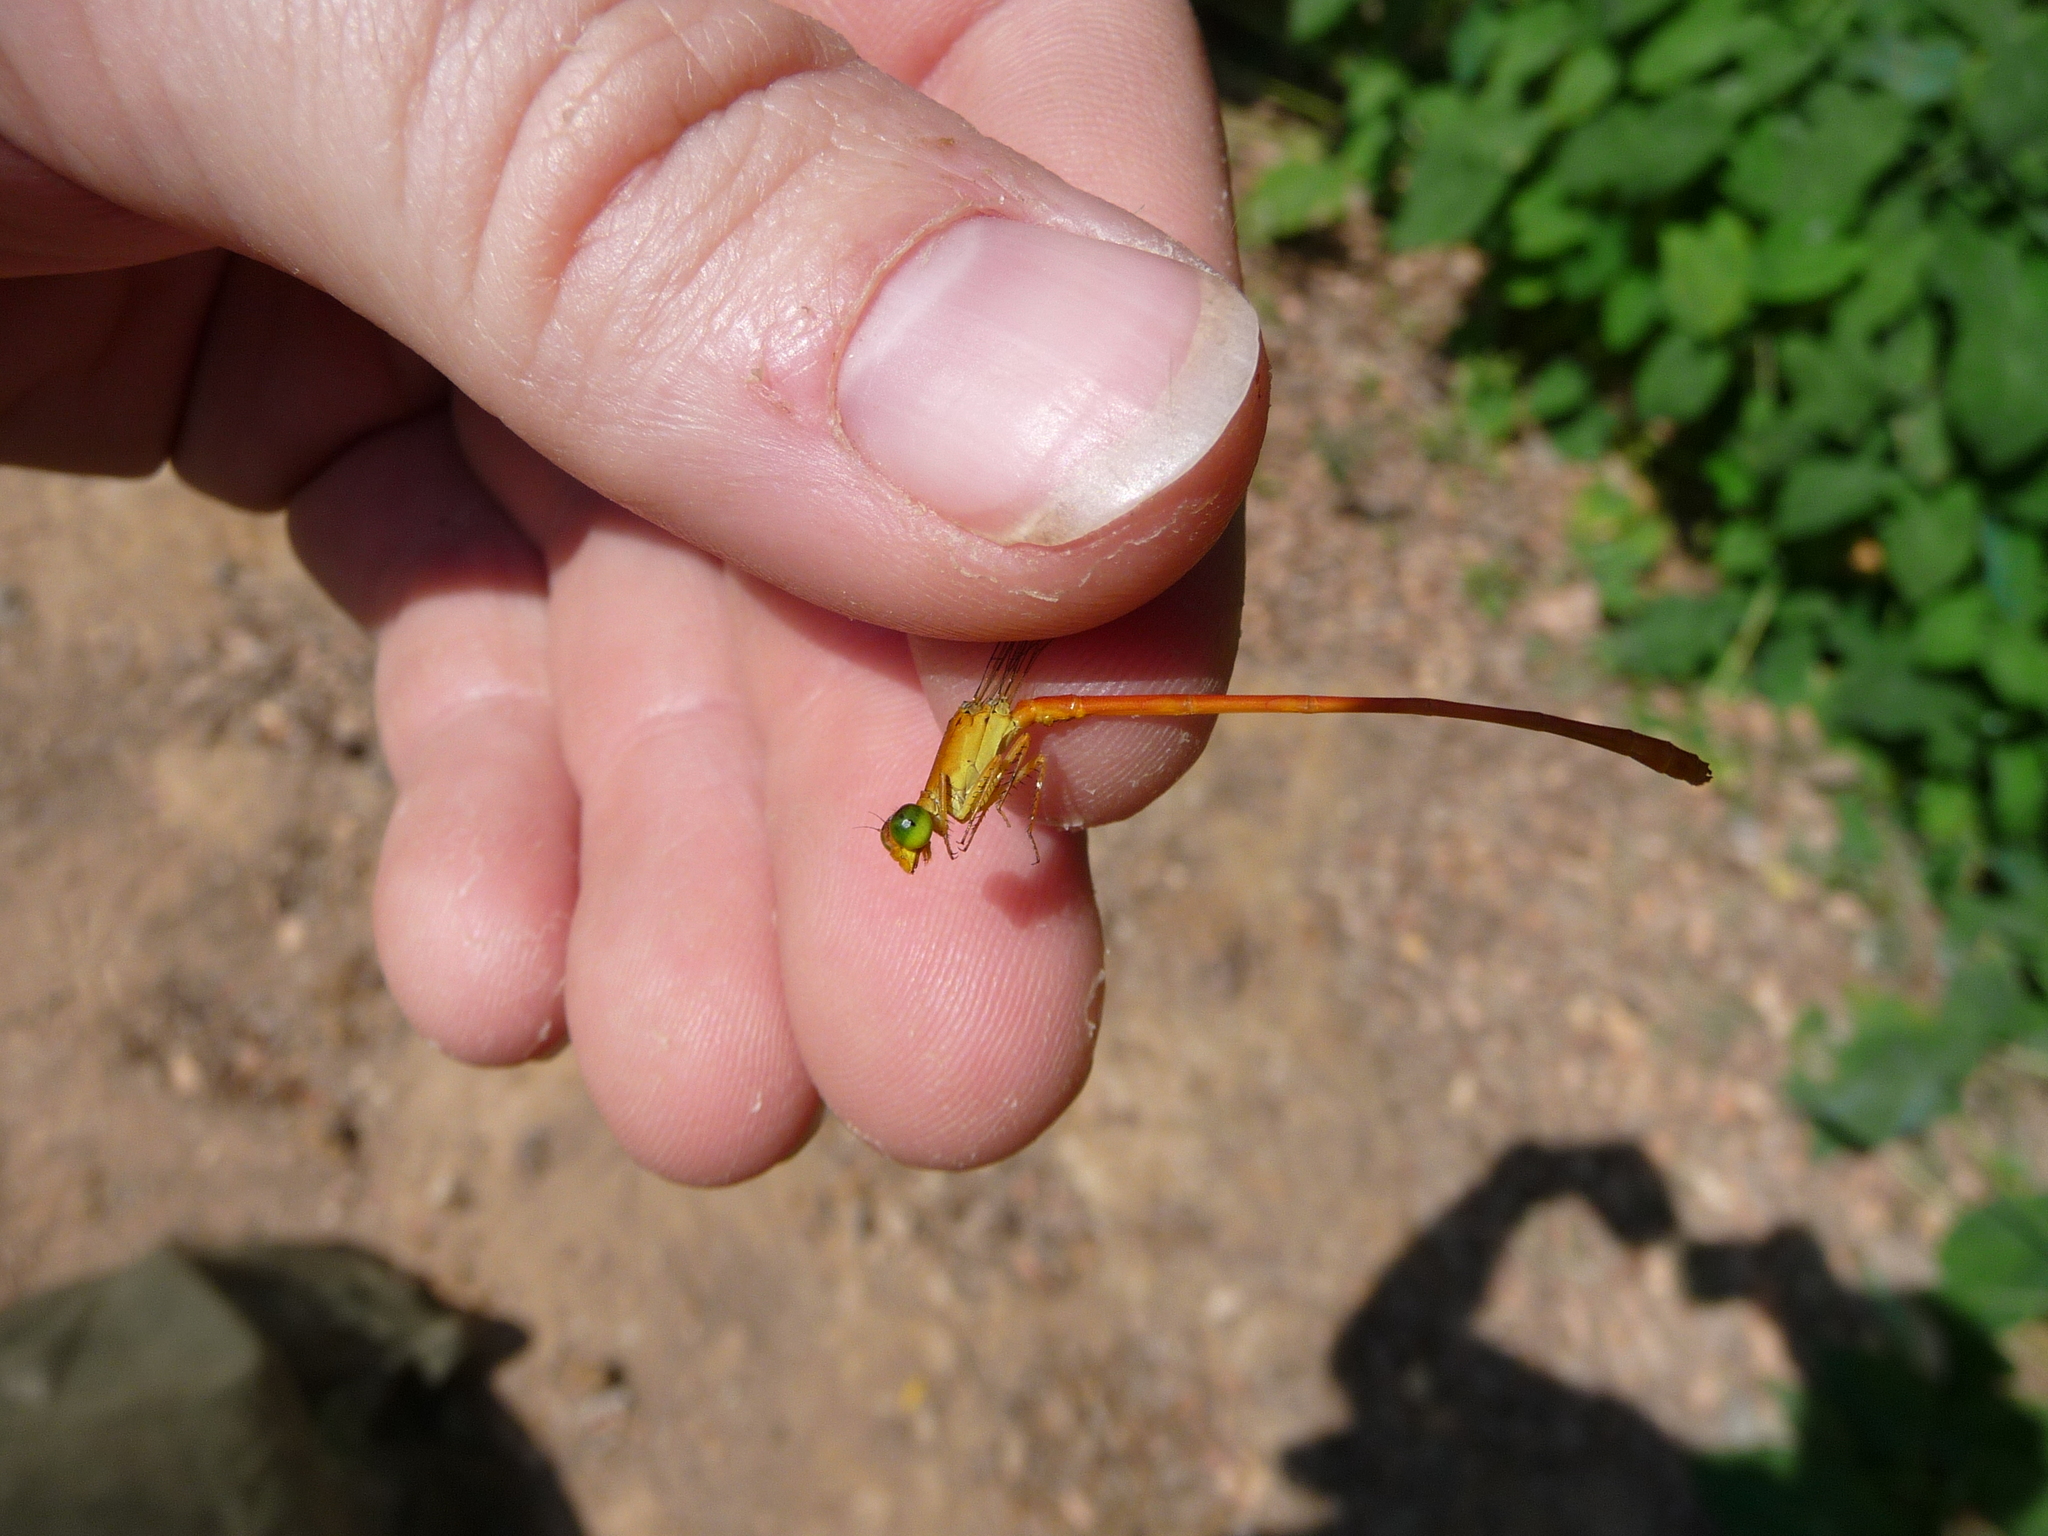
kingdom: Animalia
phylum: Arthropoda
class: Insecta
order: Odonata
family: Coenagrionidae
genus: Ceriagrion
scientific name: Ceriagrion glabrum
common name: Common pond damsel
